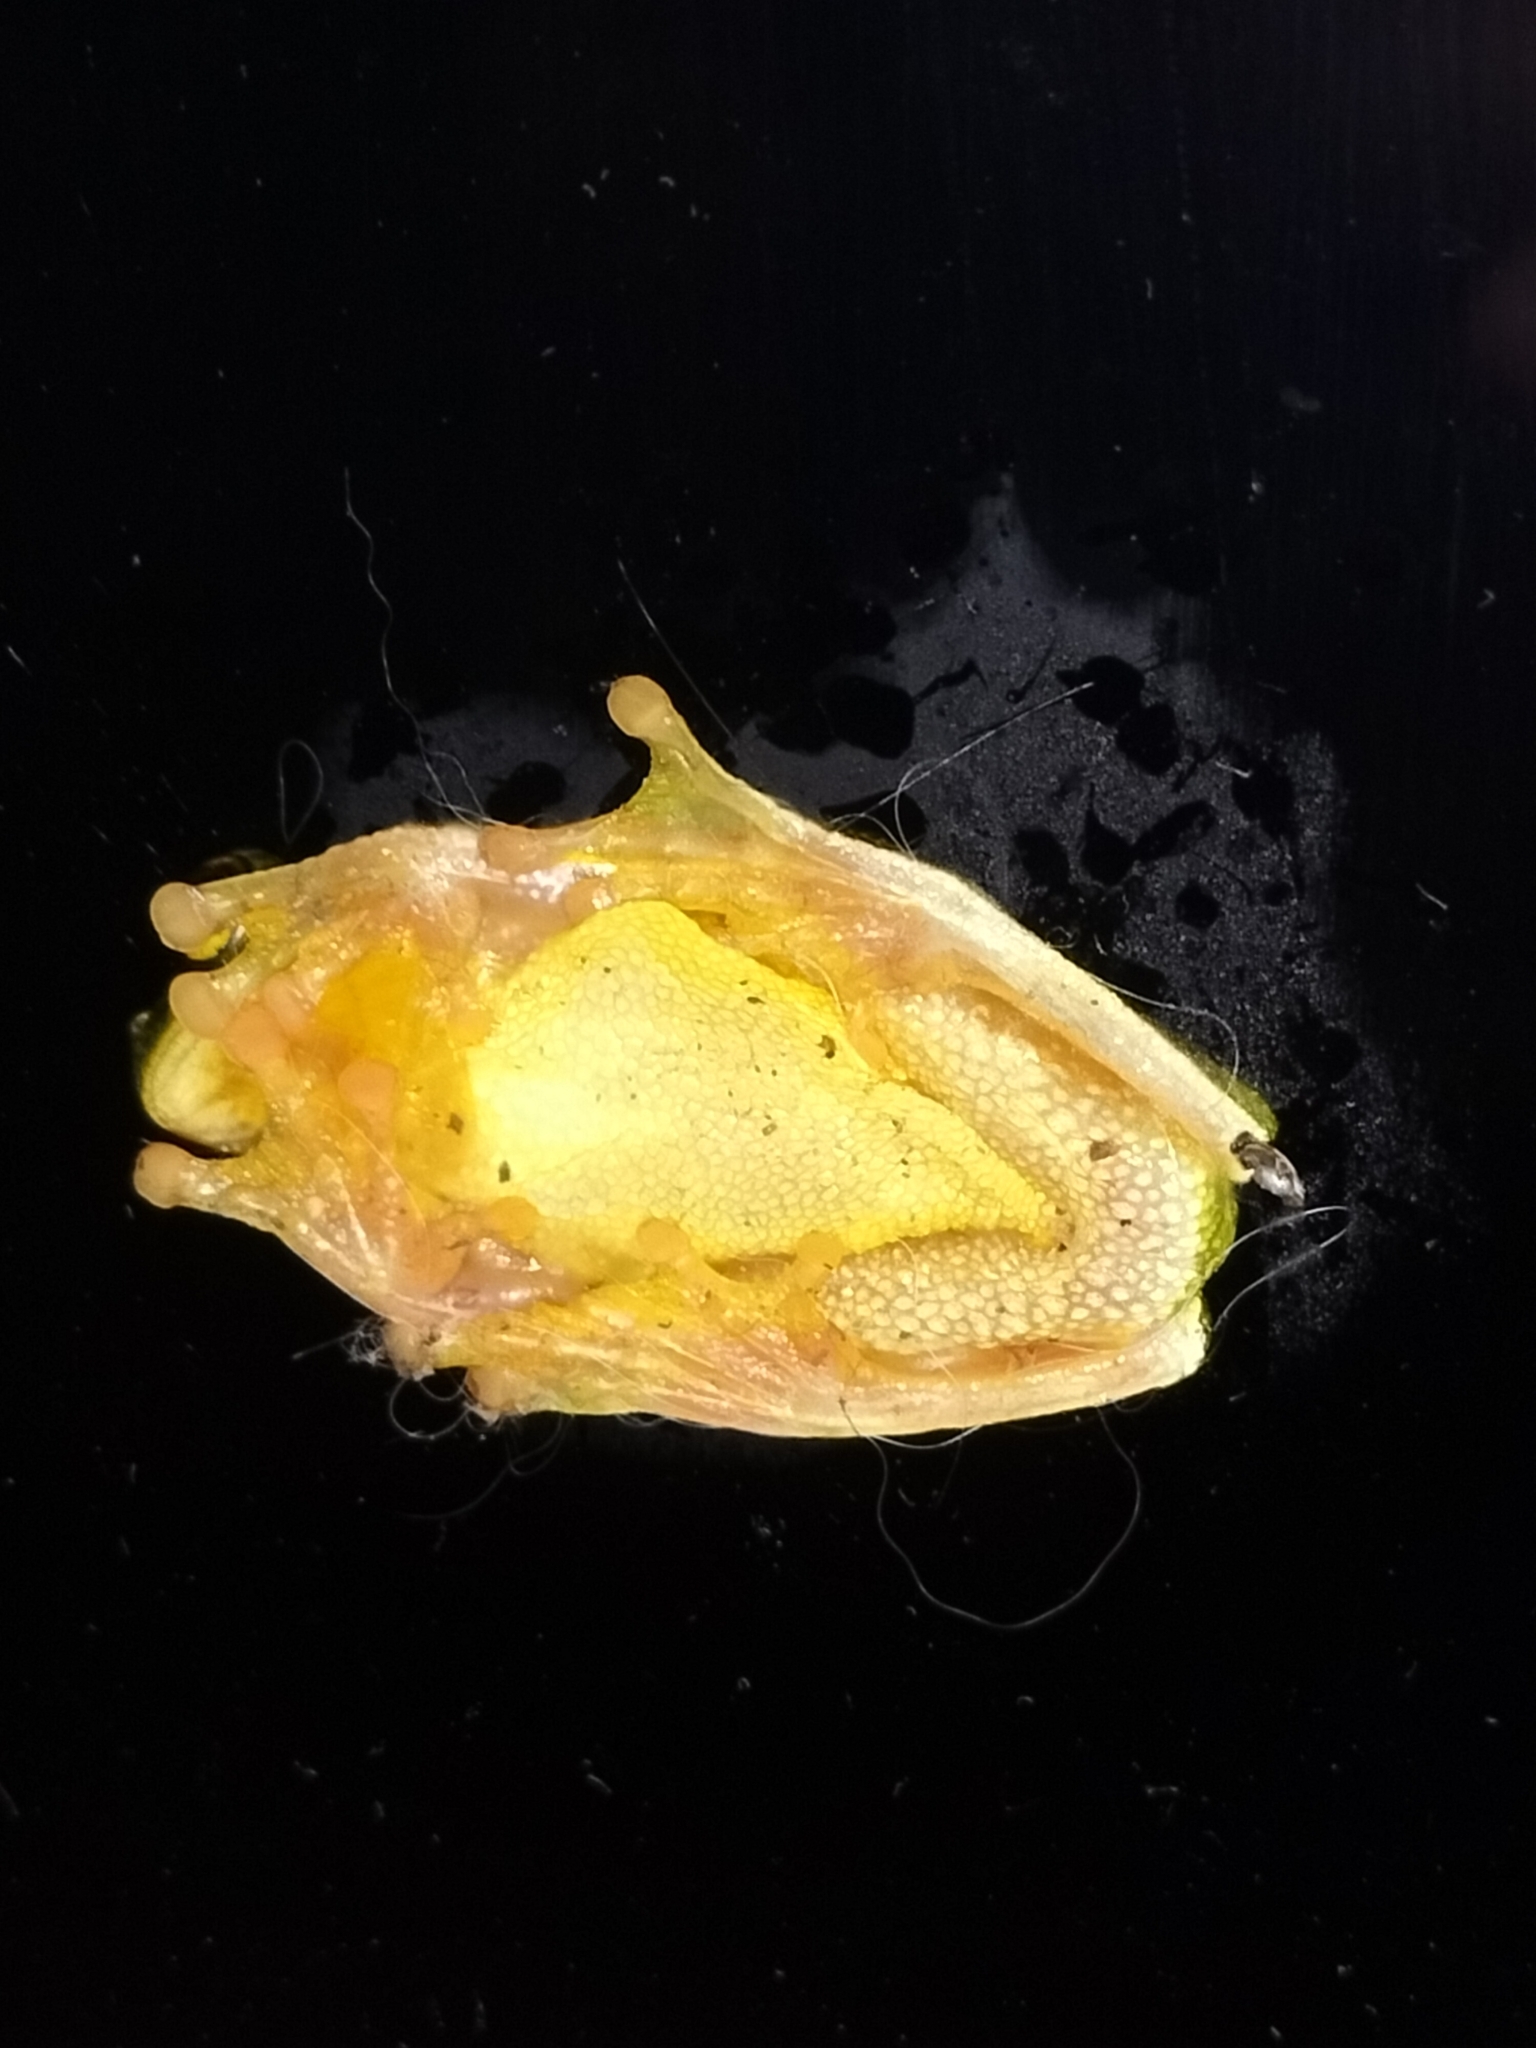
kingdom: Animalia
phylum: Chordata
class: Amphibia
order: Anura
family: Pelodryadidae
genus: Ranoidea
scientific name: Ranoidea gracilenta
